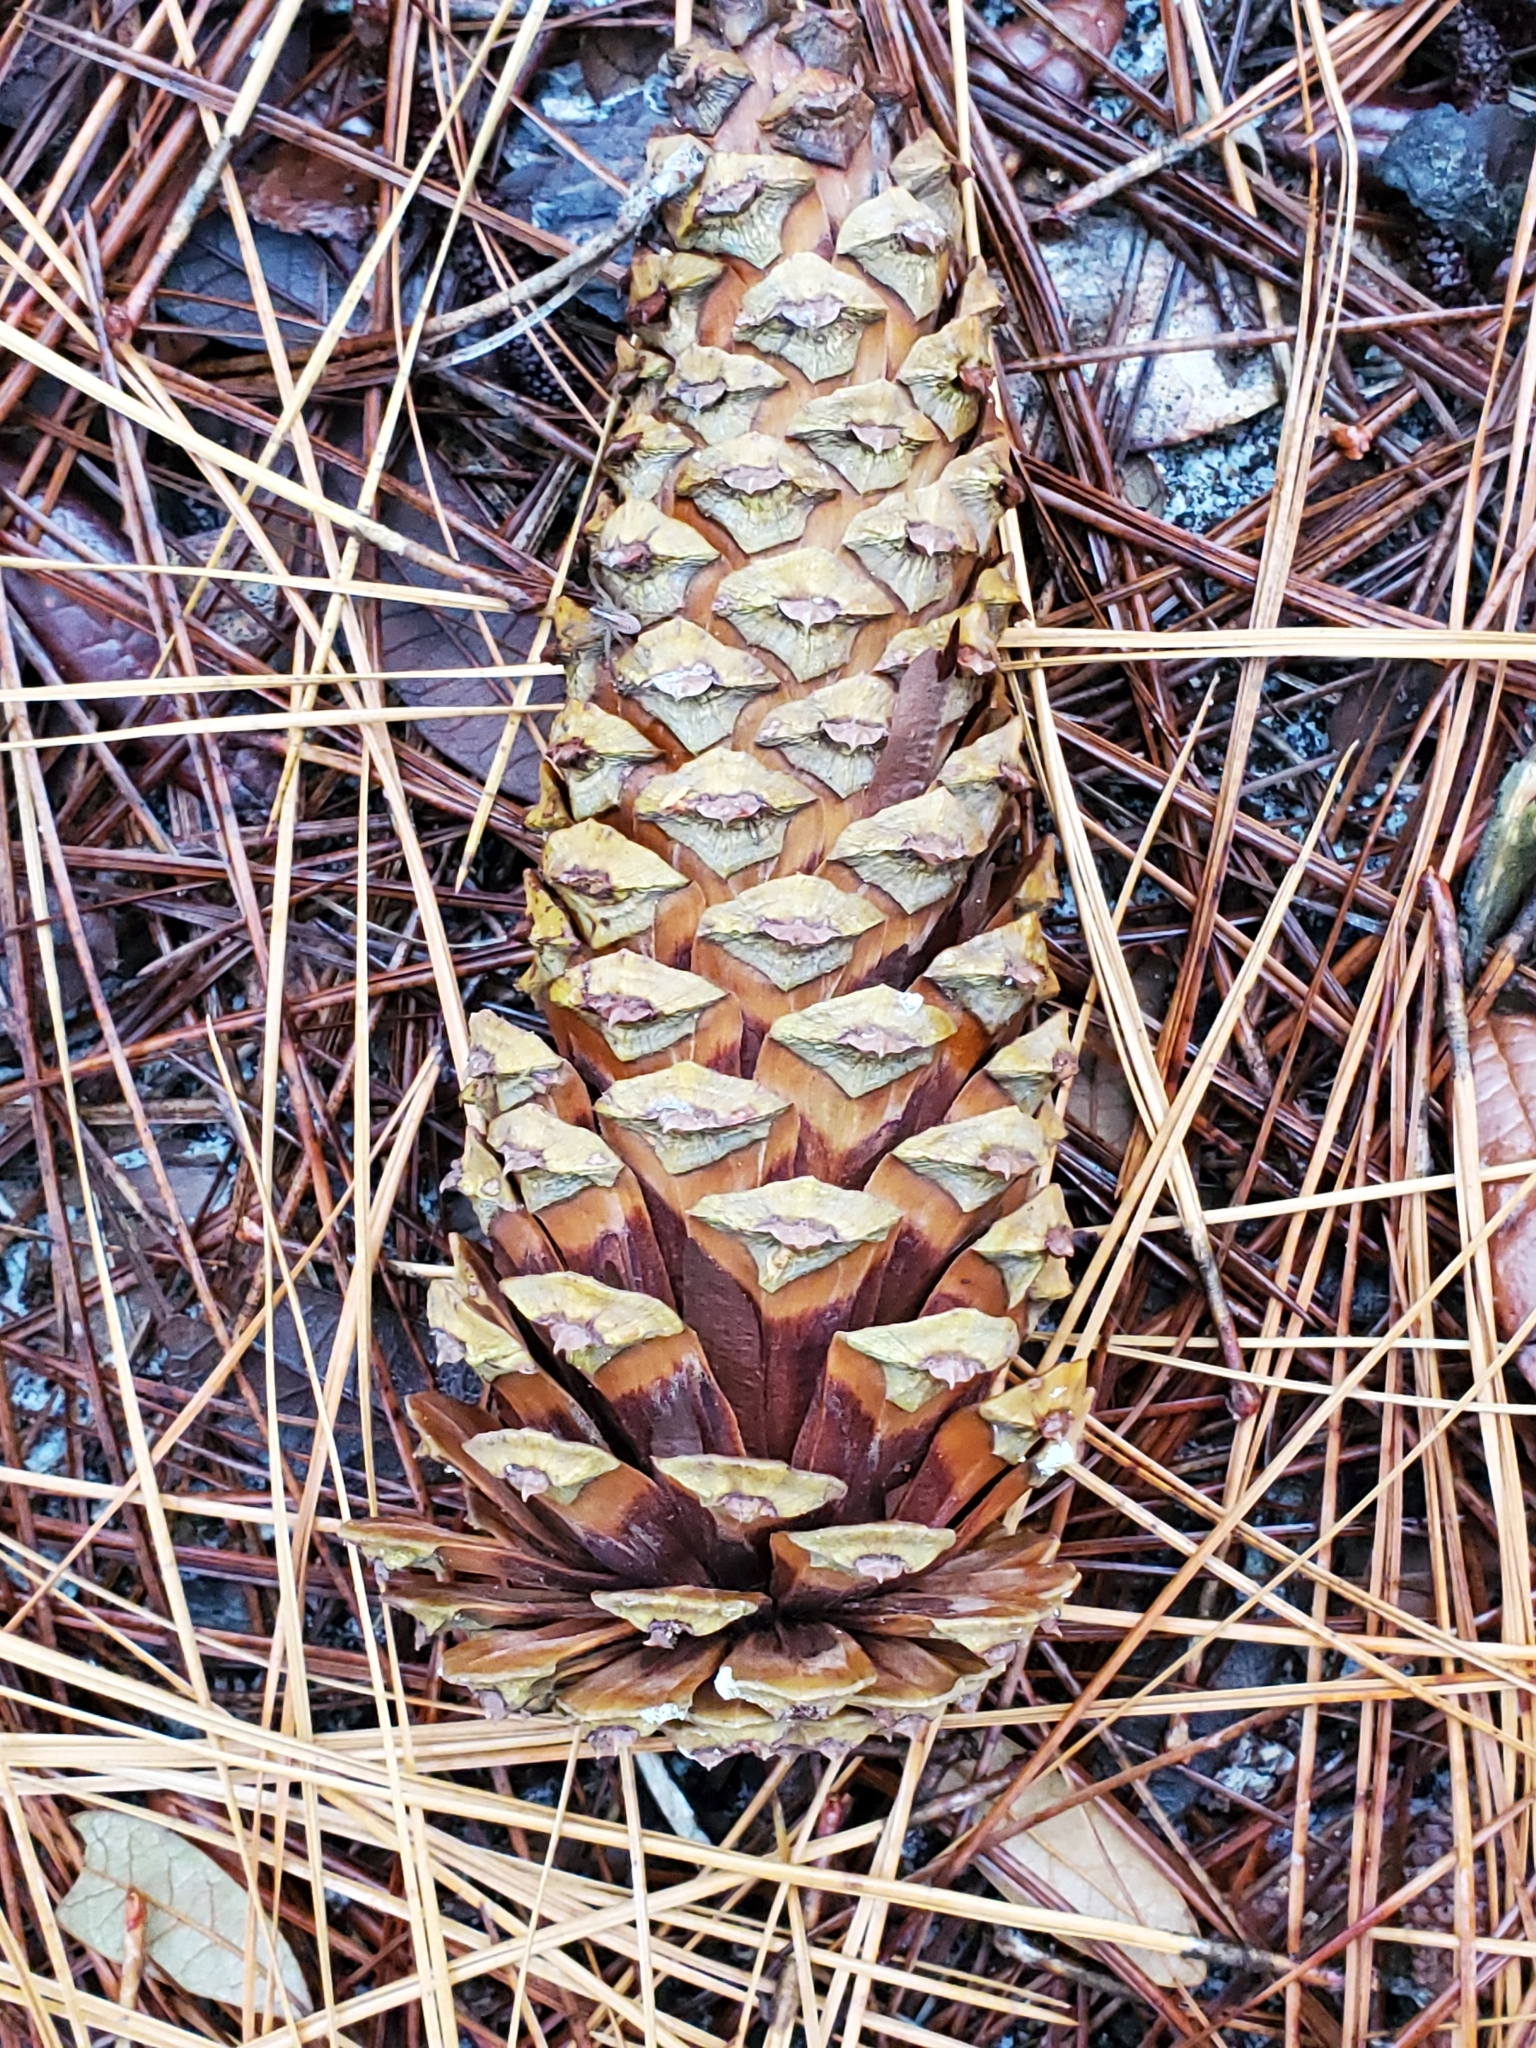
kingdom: Plantae
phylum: Tracheophyta
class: Pinopsida
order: Pinales
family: Pinaceae
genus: Pinus
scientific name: Pinus palustris
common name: Longleaf pine
